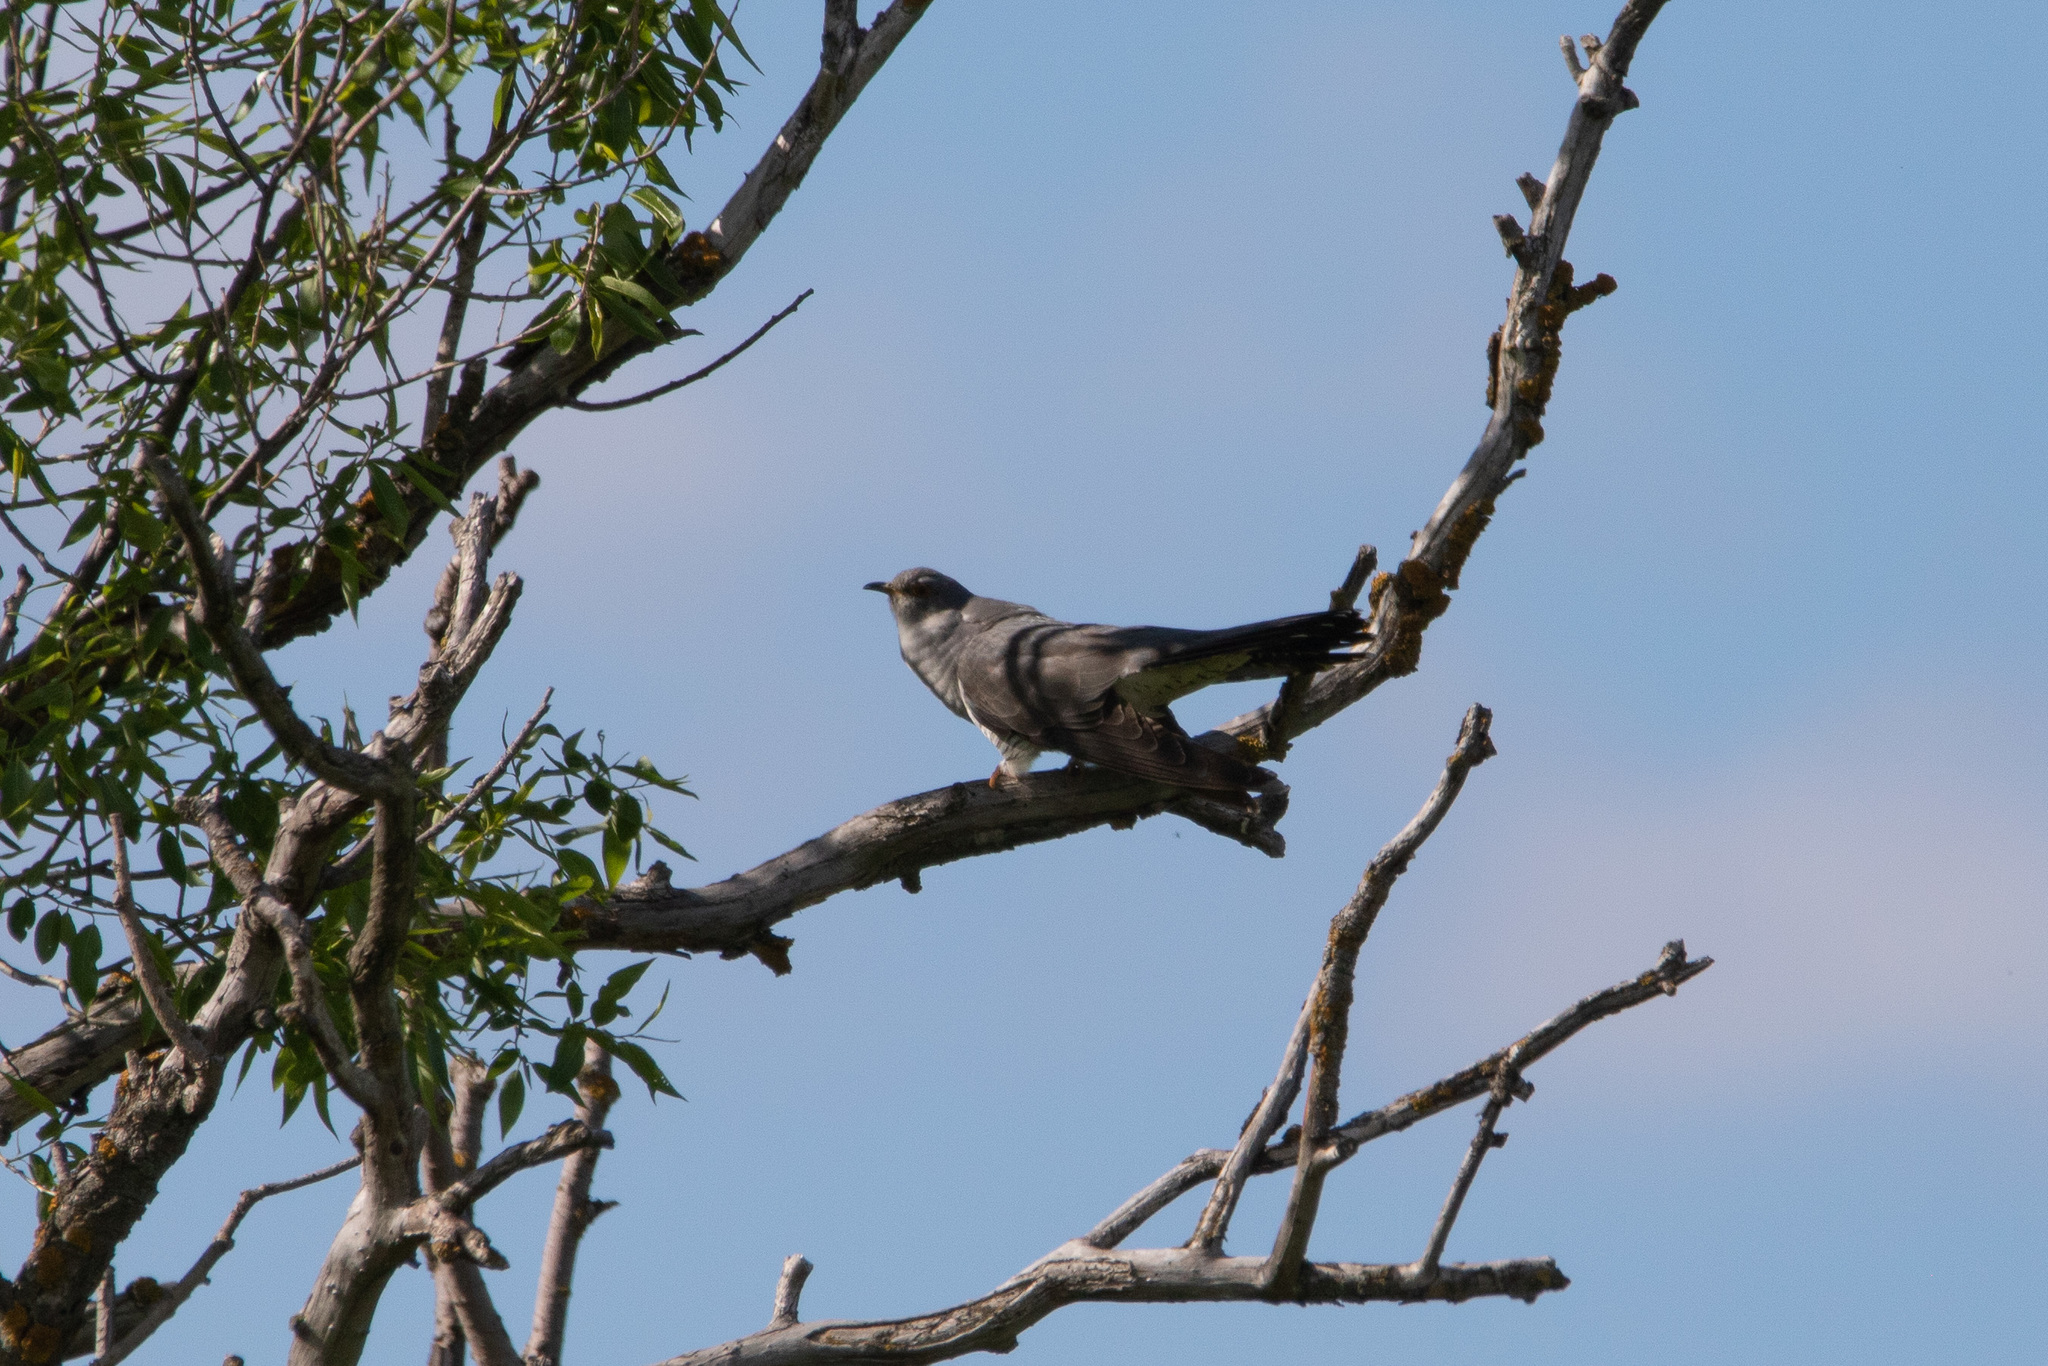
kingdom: Animalia
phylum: Chordata
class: Aves
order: Cuculiformes
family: Cuculidae
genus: Cuculus
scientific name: Cuculus canorus
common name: Common cuckoo
